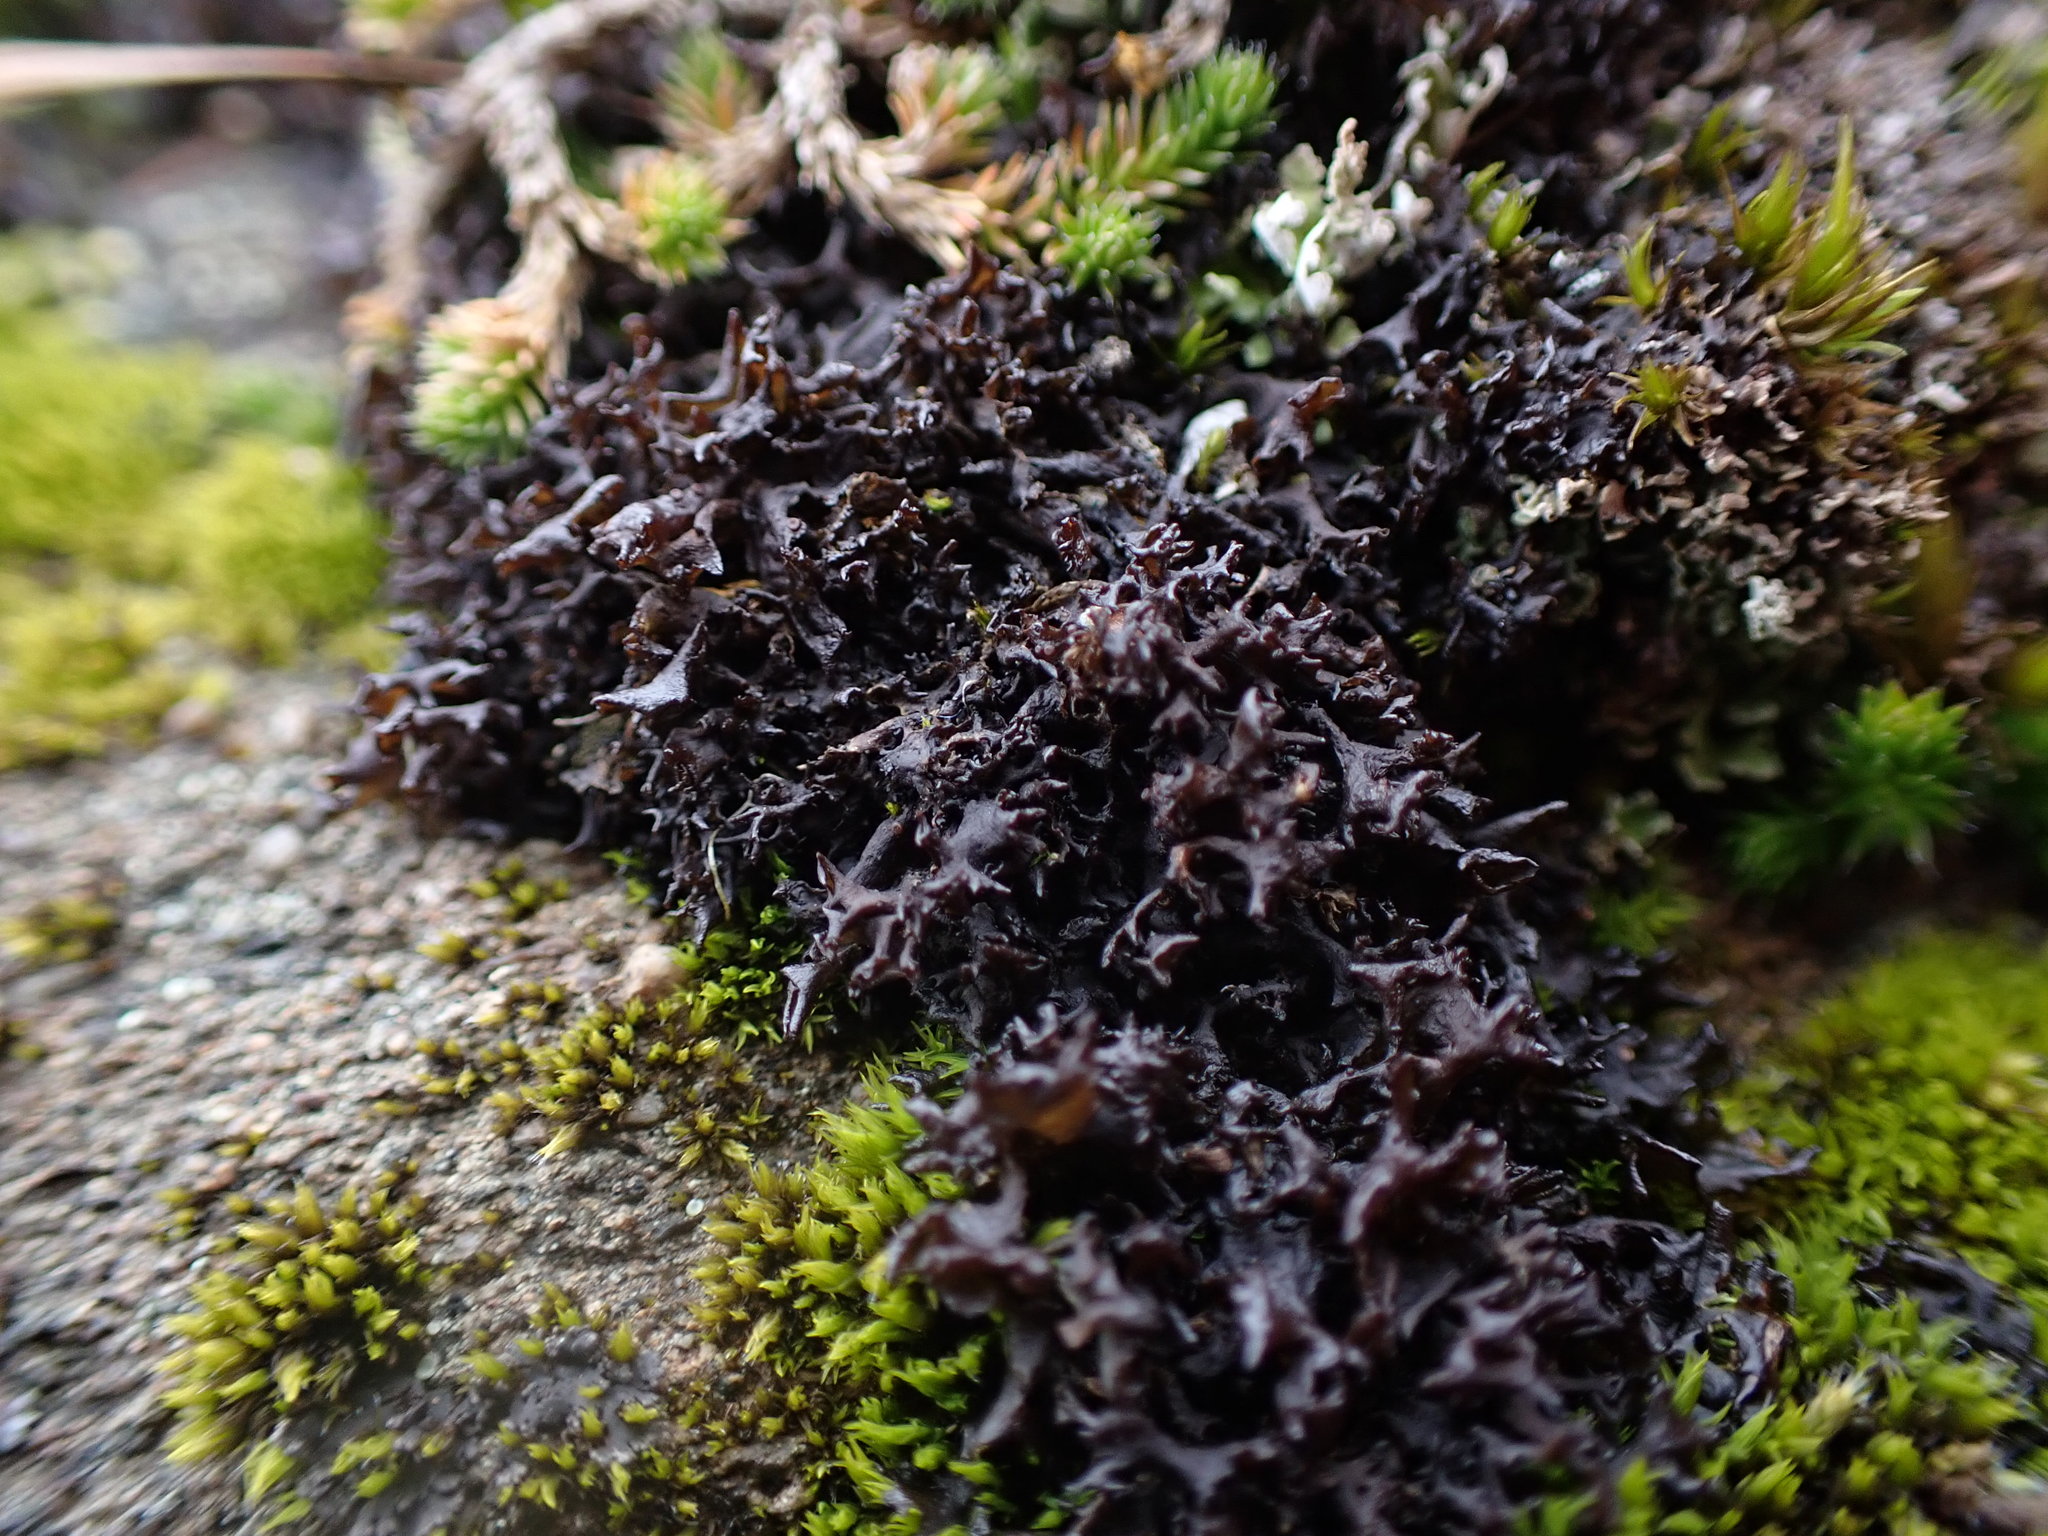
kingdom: Fungi
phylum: Ascomycota
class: Lecanoromycetes
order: Peltigerales
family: Collemataceae
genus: Scytinium
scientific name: Scytinium palmatum
